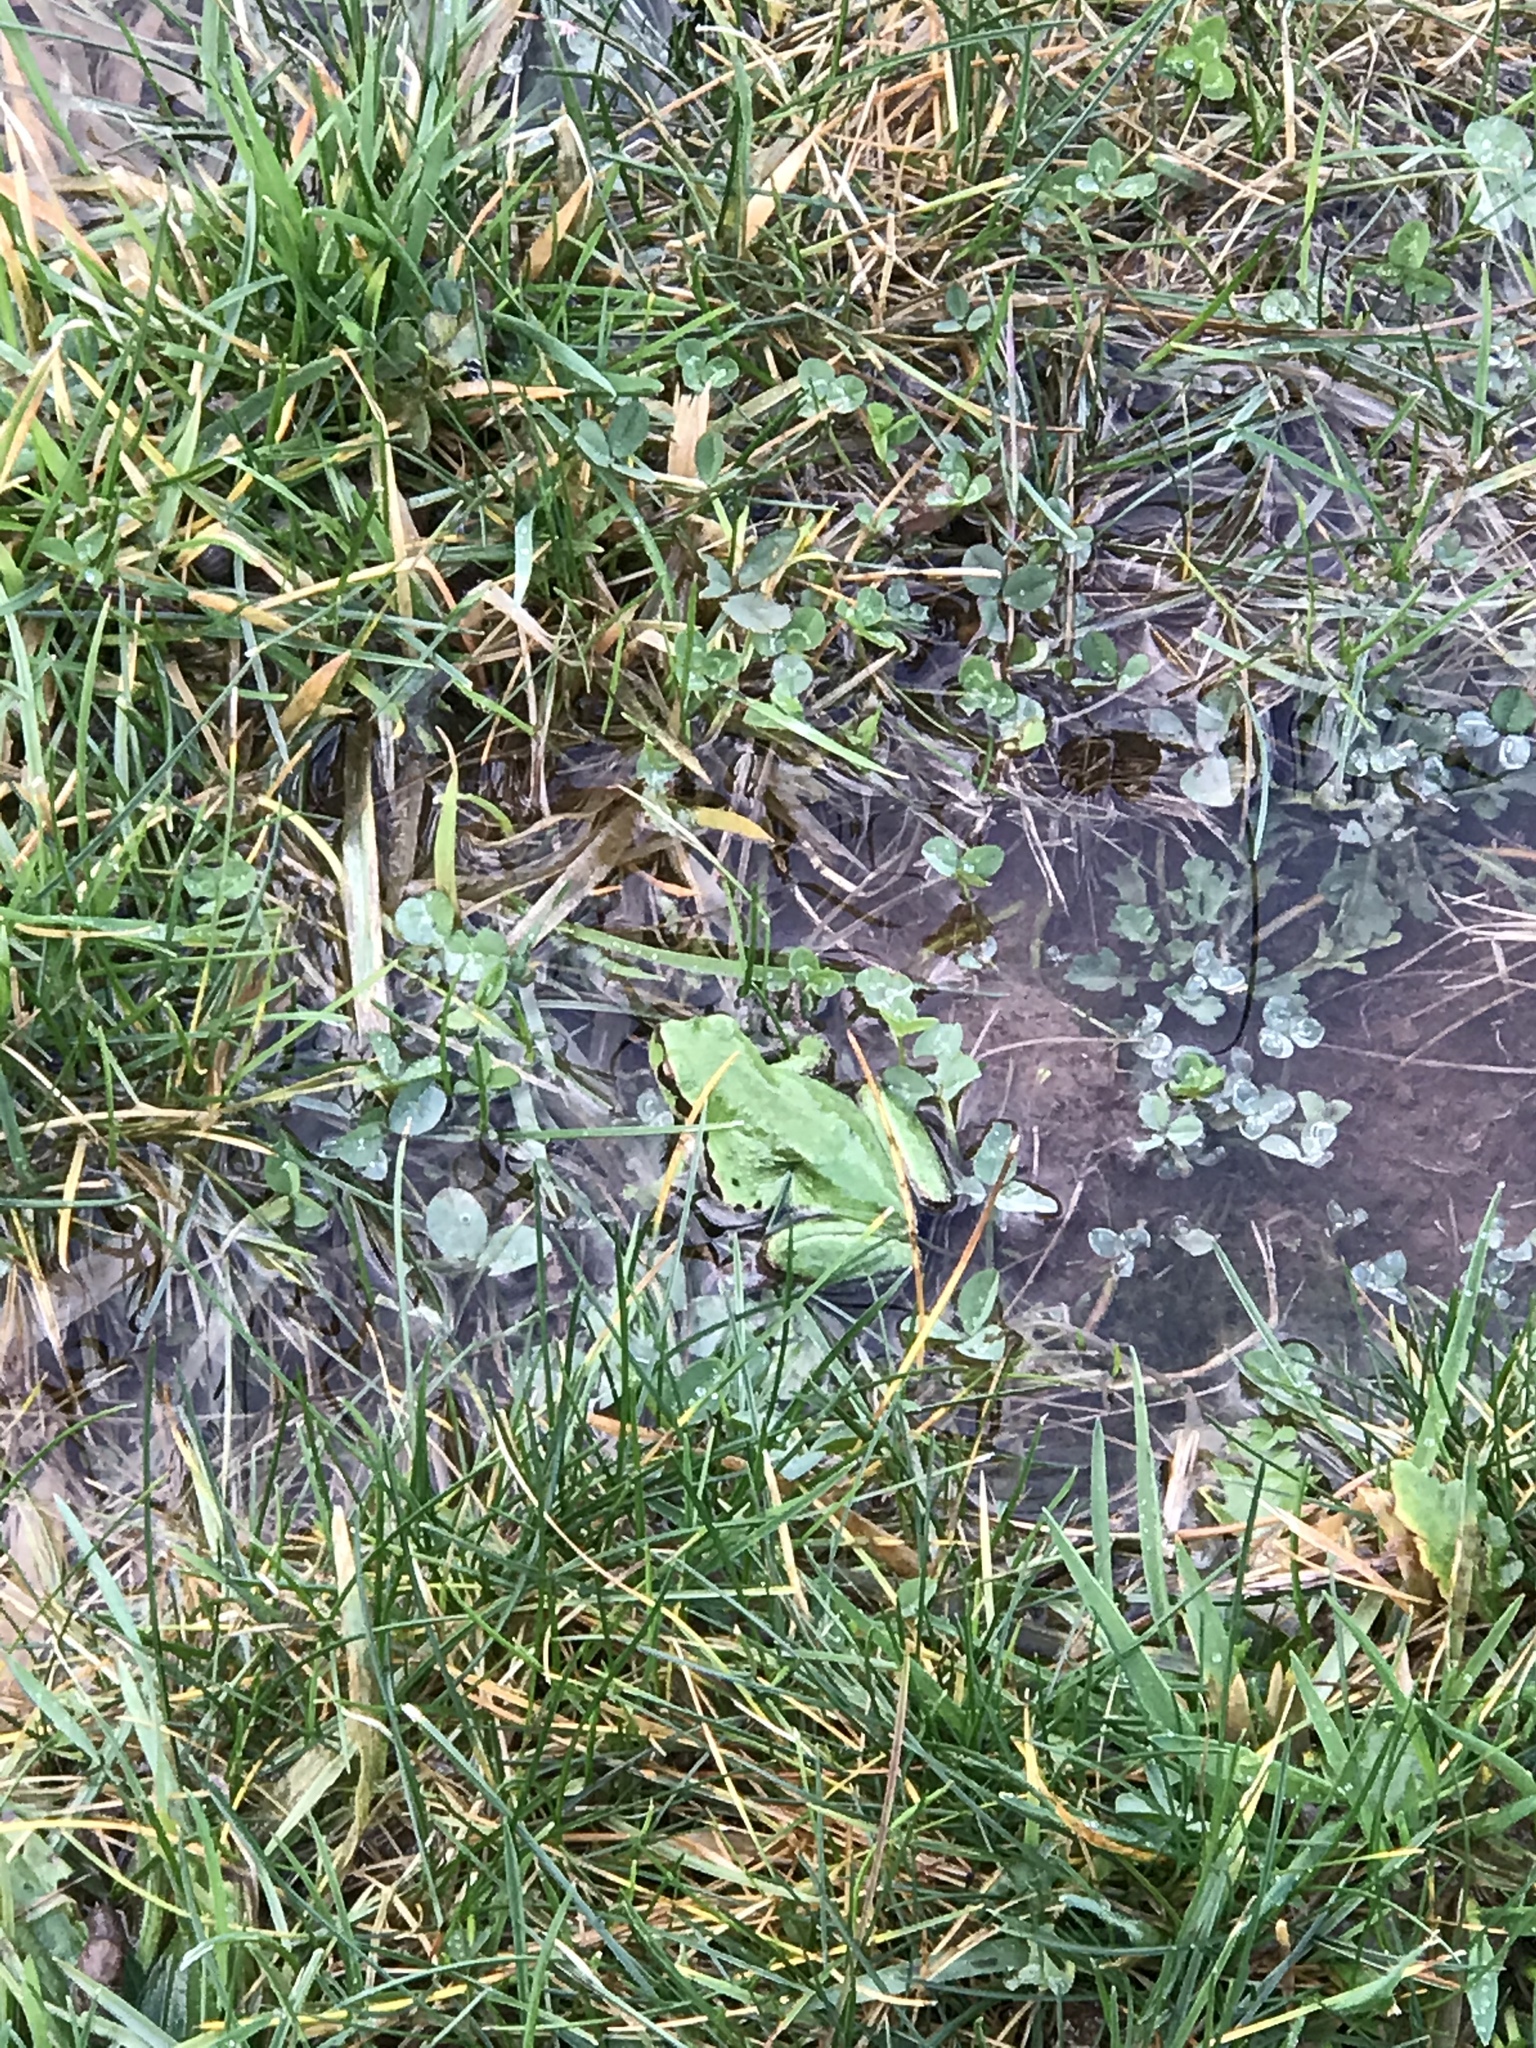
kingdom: Animalia
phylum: Chordata
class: Amphibia
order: Anura
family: Hylidae
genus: Pseudacris
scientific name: Pseudacris regilla
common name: Pacific chorus frog
